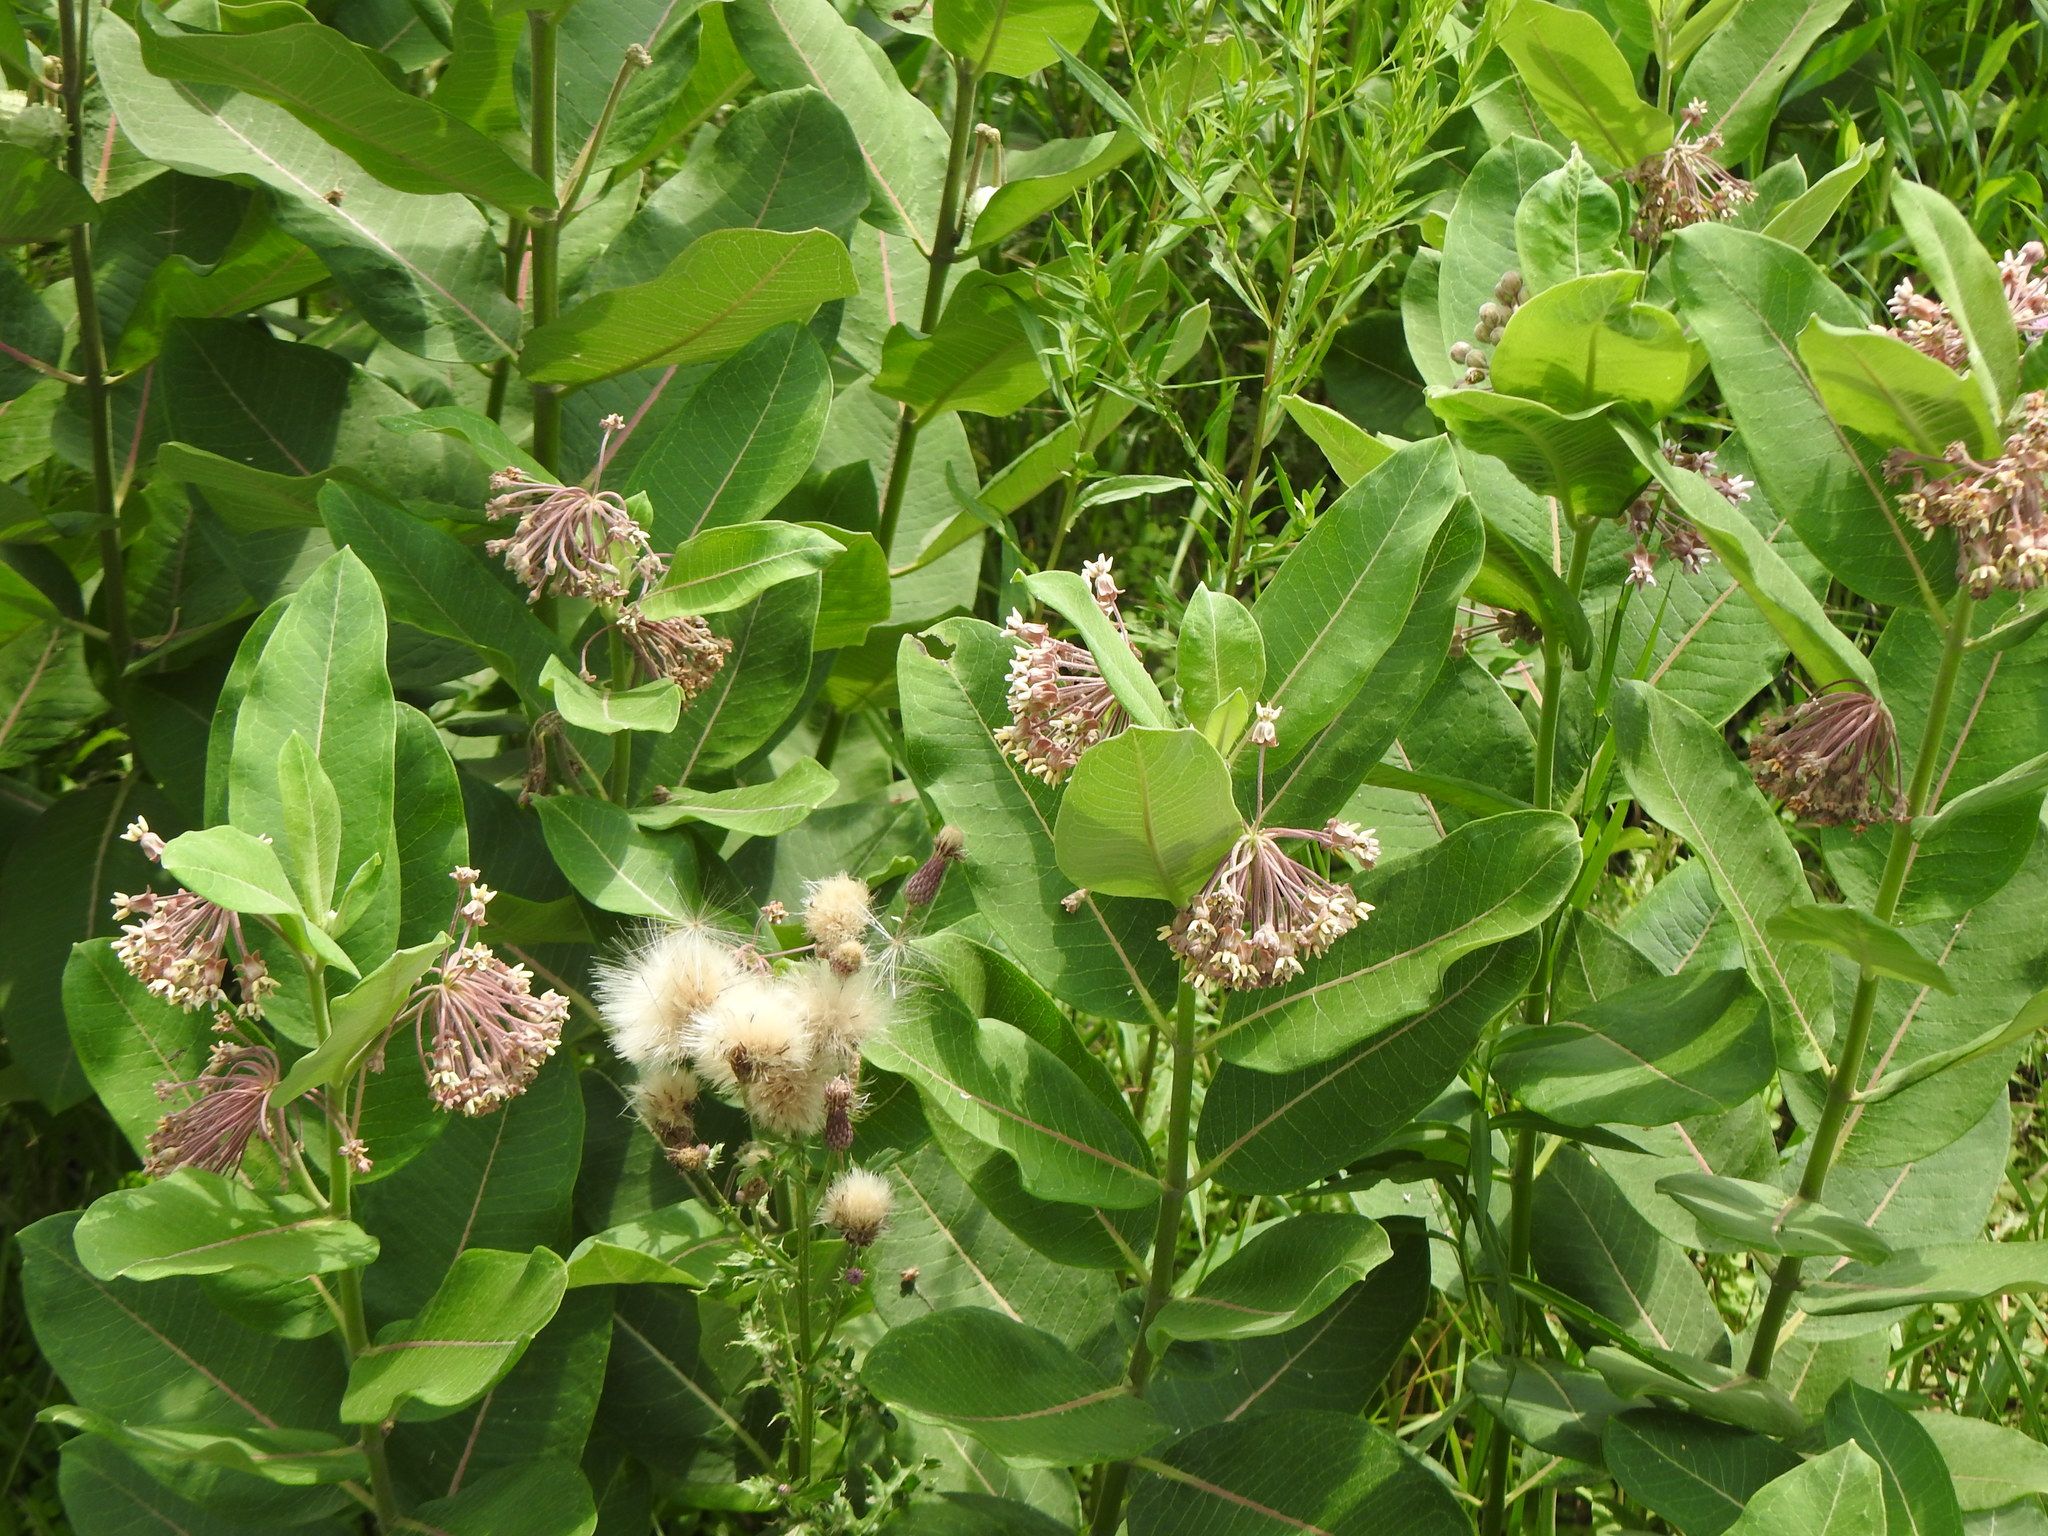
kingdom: Plantae
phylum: Tracheophyta
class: Magnoliopsida
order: Gentianales
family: Apocynaceae
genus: Asclepias
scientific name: Asclepias syriaca
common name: Common milkweed
